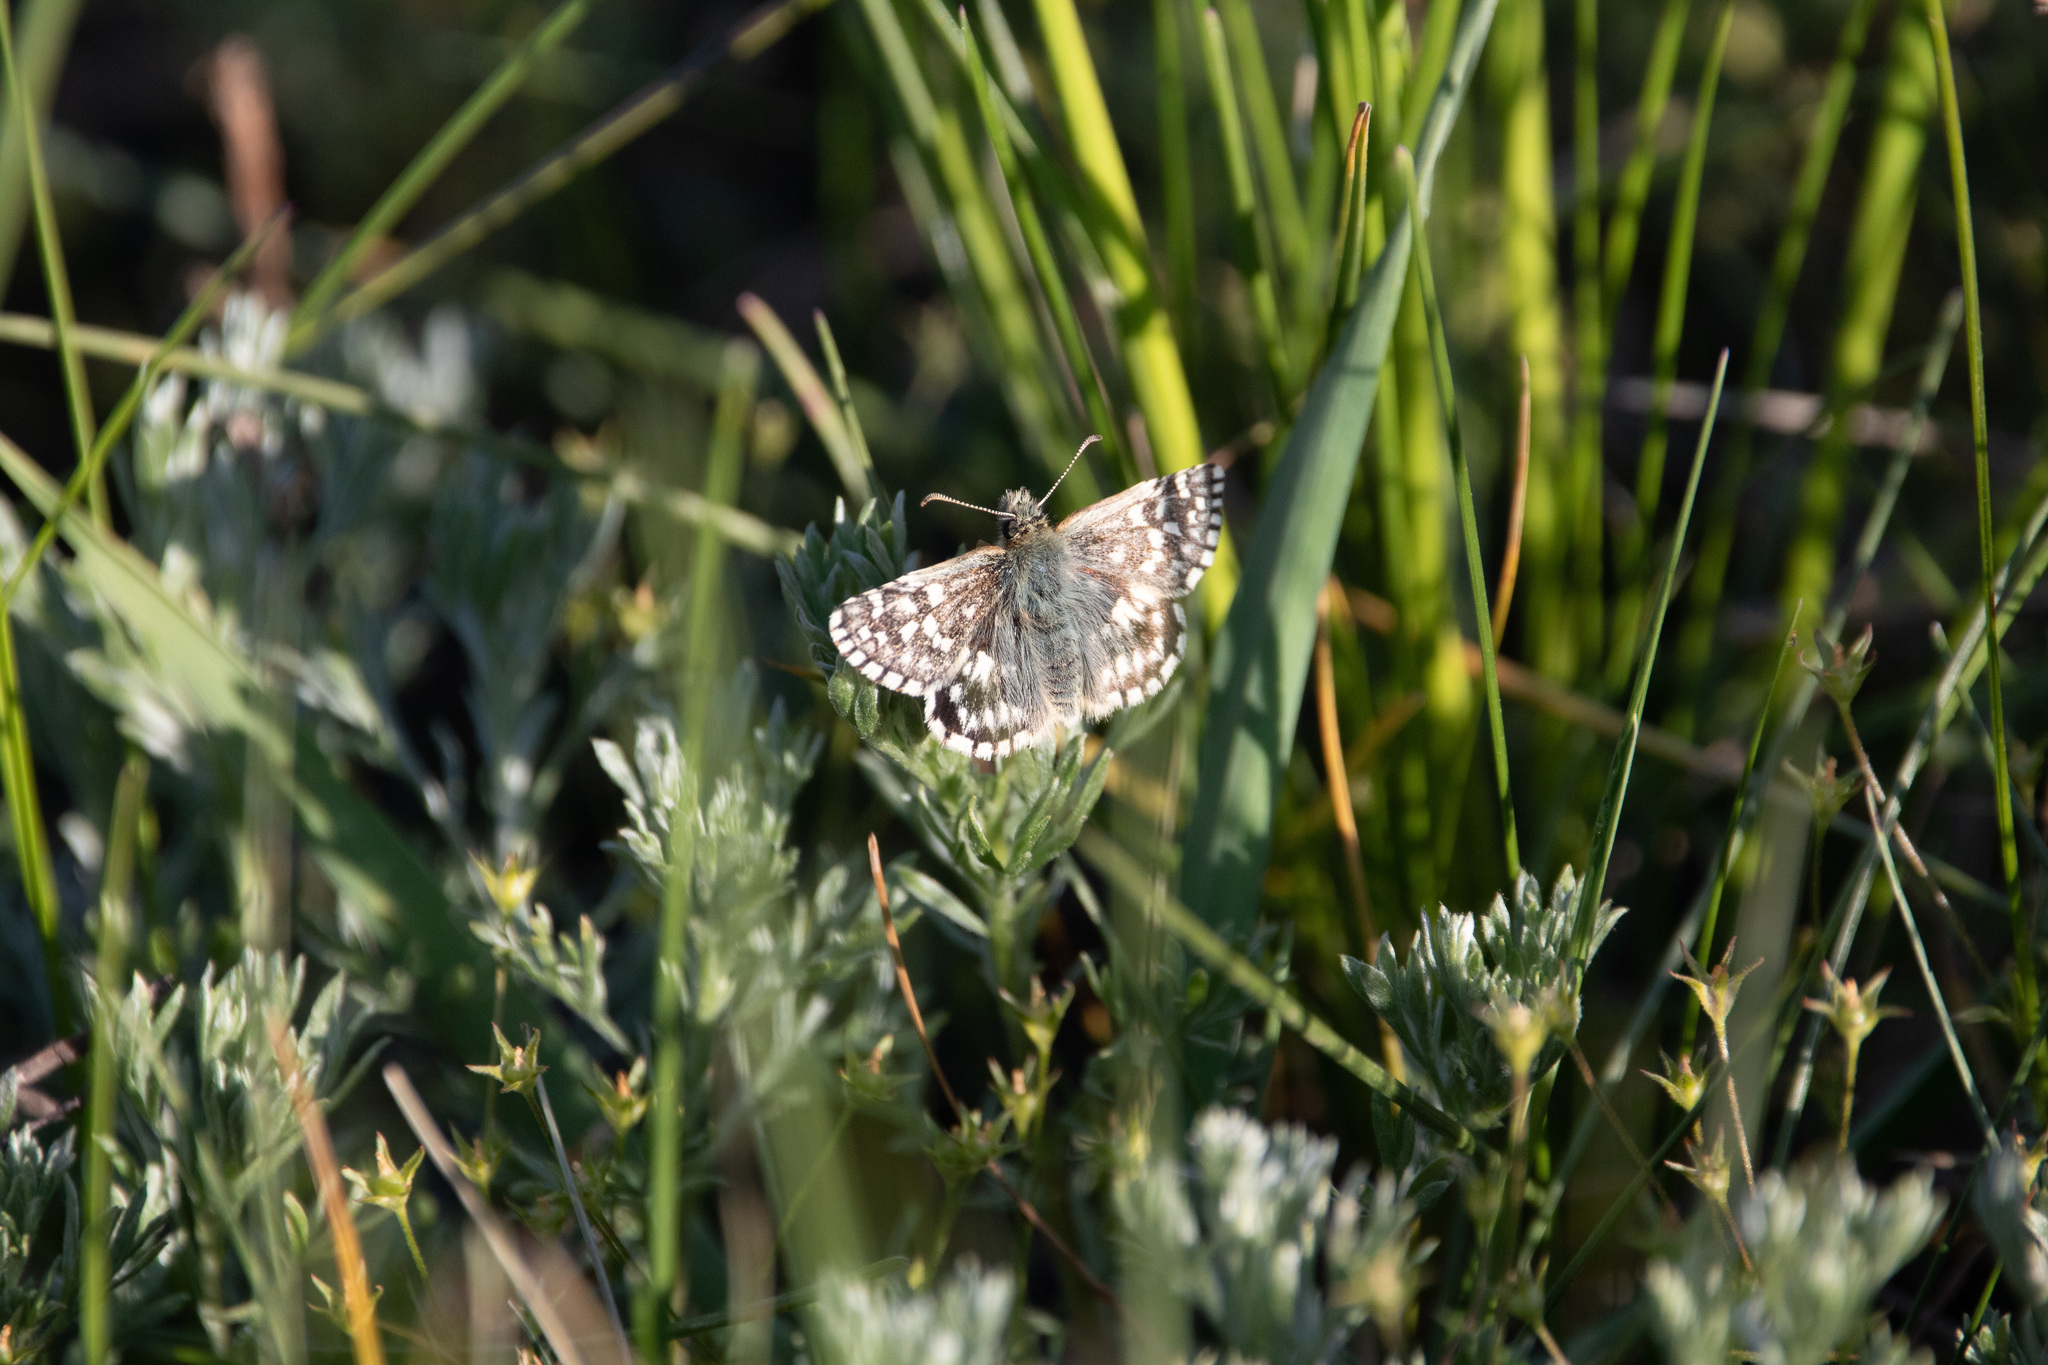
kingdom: Animalia
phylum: Arthropoda
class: Insecta
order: Lepidoptera
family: Hesperiidae
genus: Pyrgus
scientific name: Pyrgus malvae
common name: Grizzled skipper
